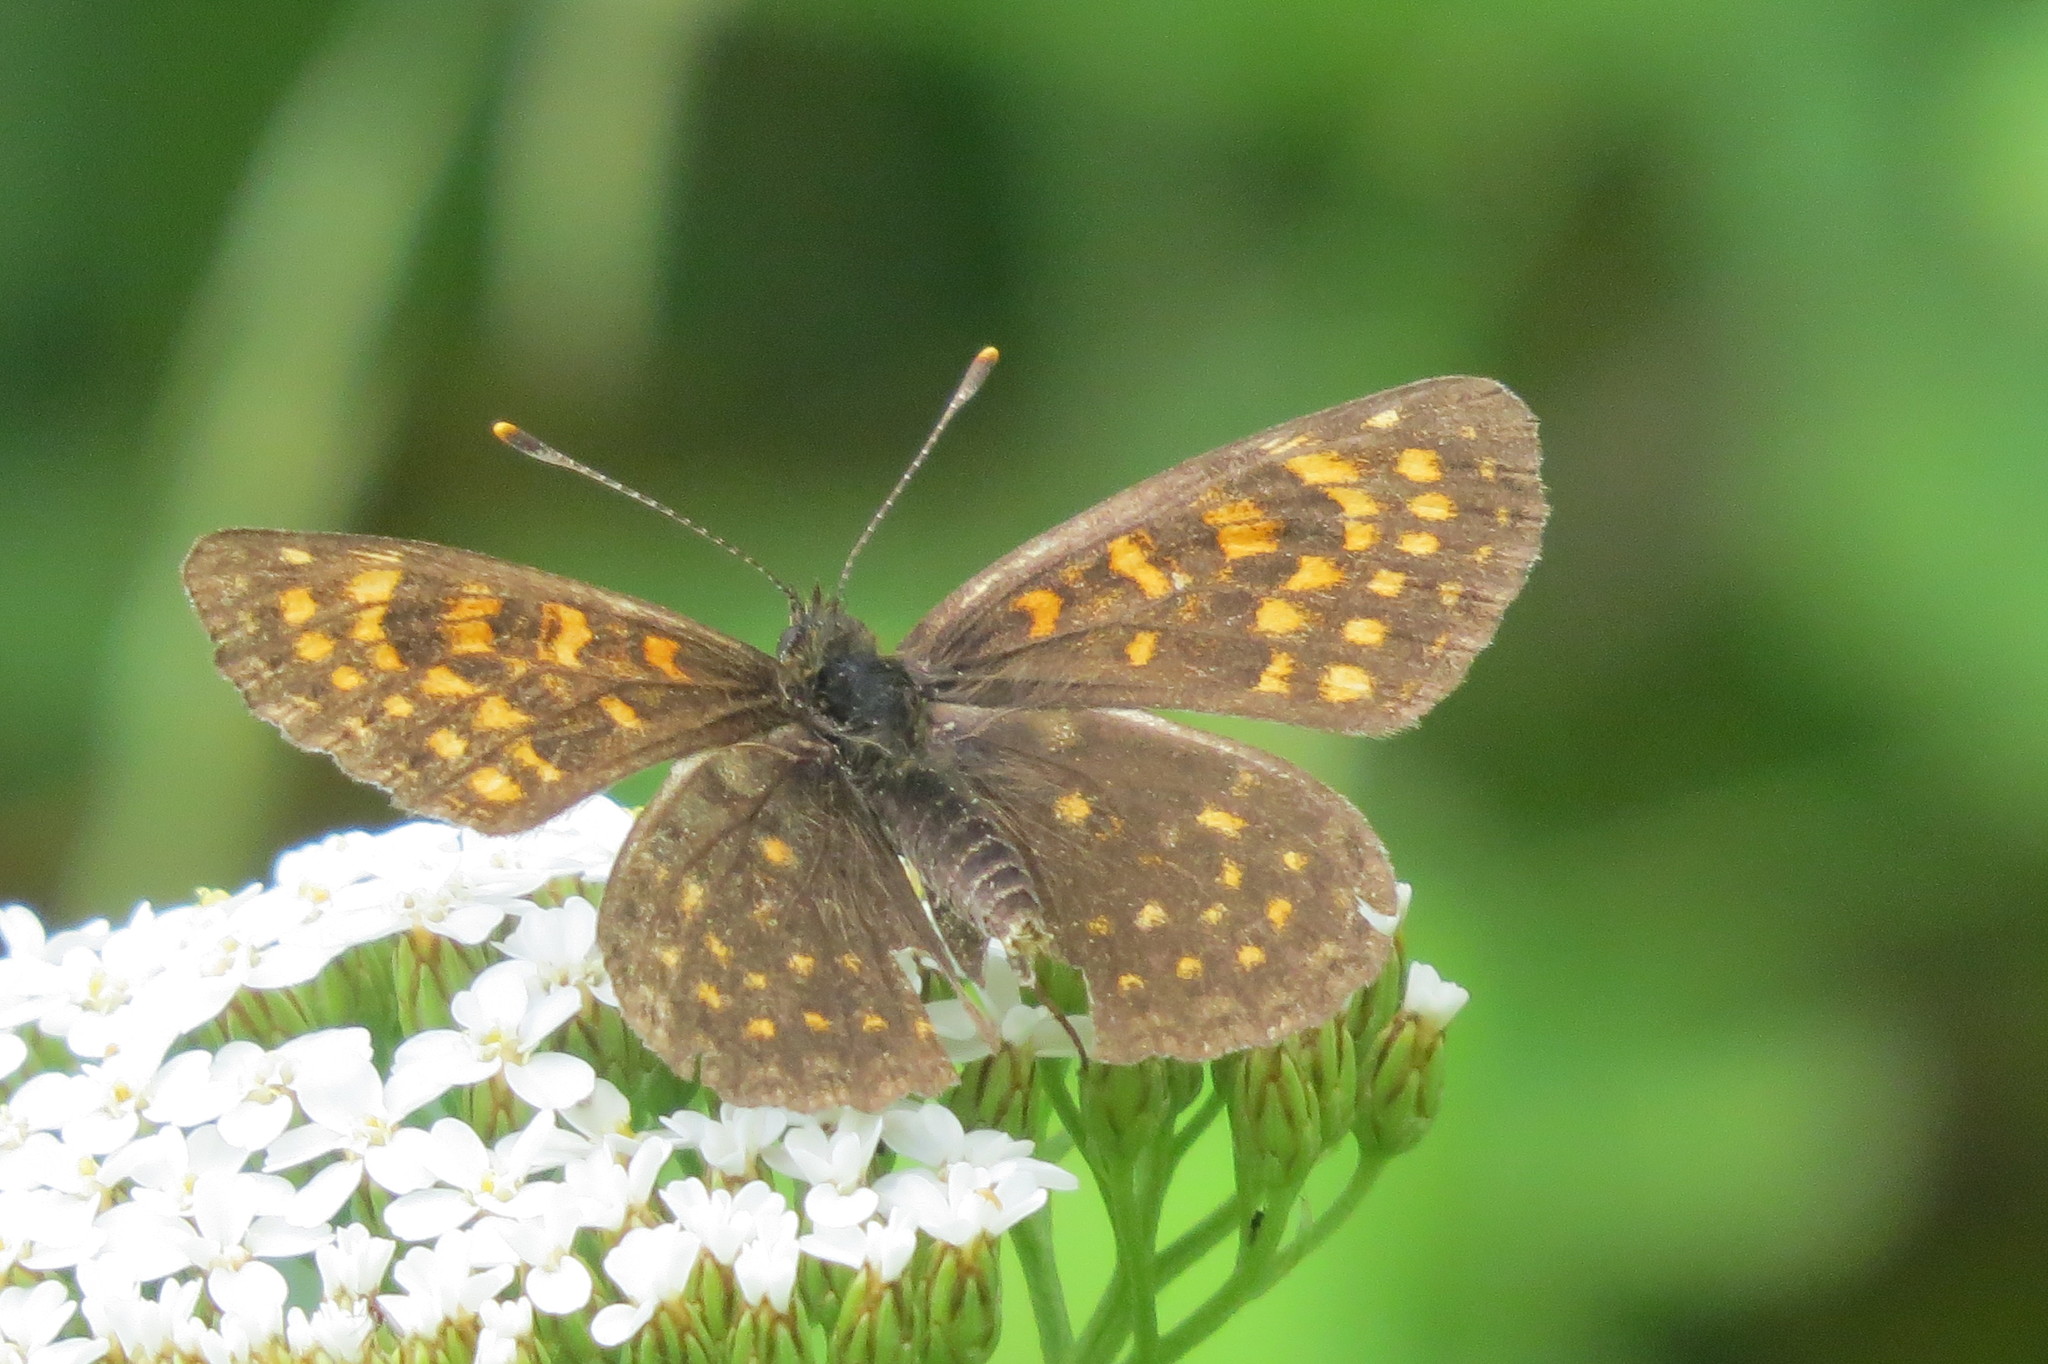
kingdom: Animalia
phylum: Arthropoda
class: Insecta
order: Lepidoptera
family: Nymphalidae
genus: Melitaea
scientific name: Melitaea diamina
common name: False heath fritillary
